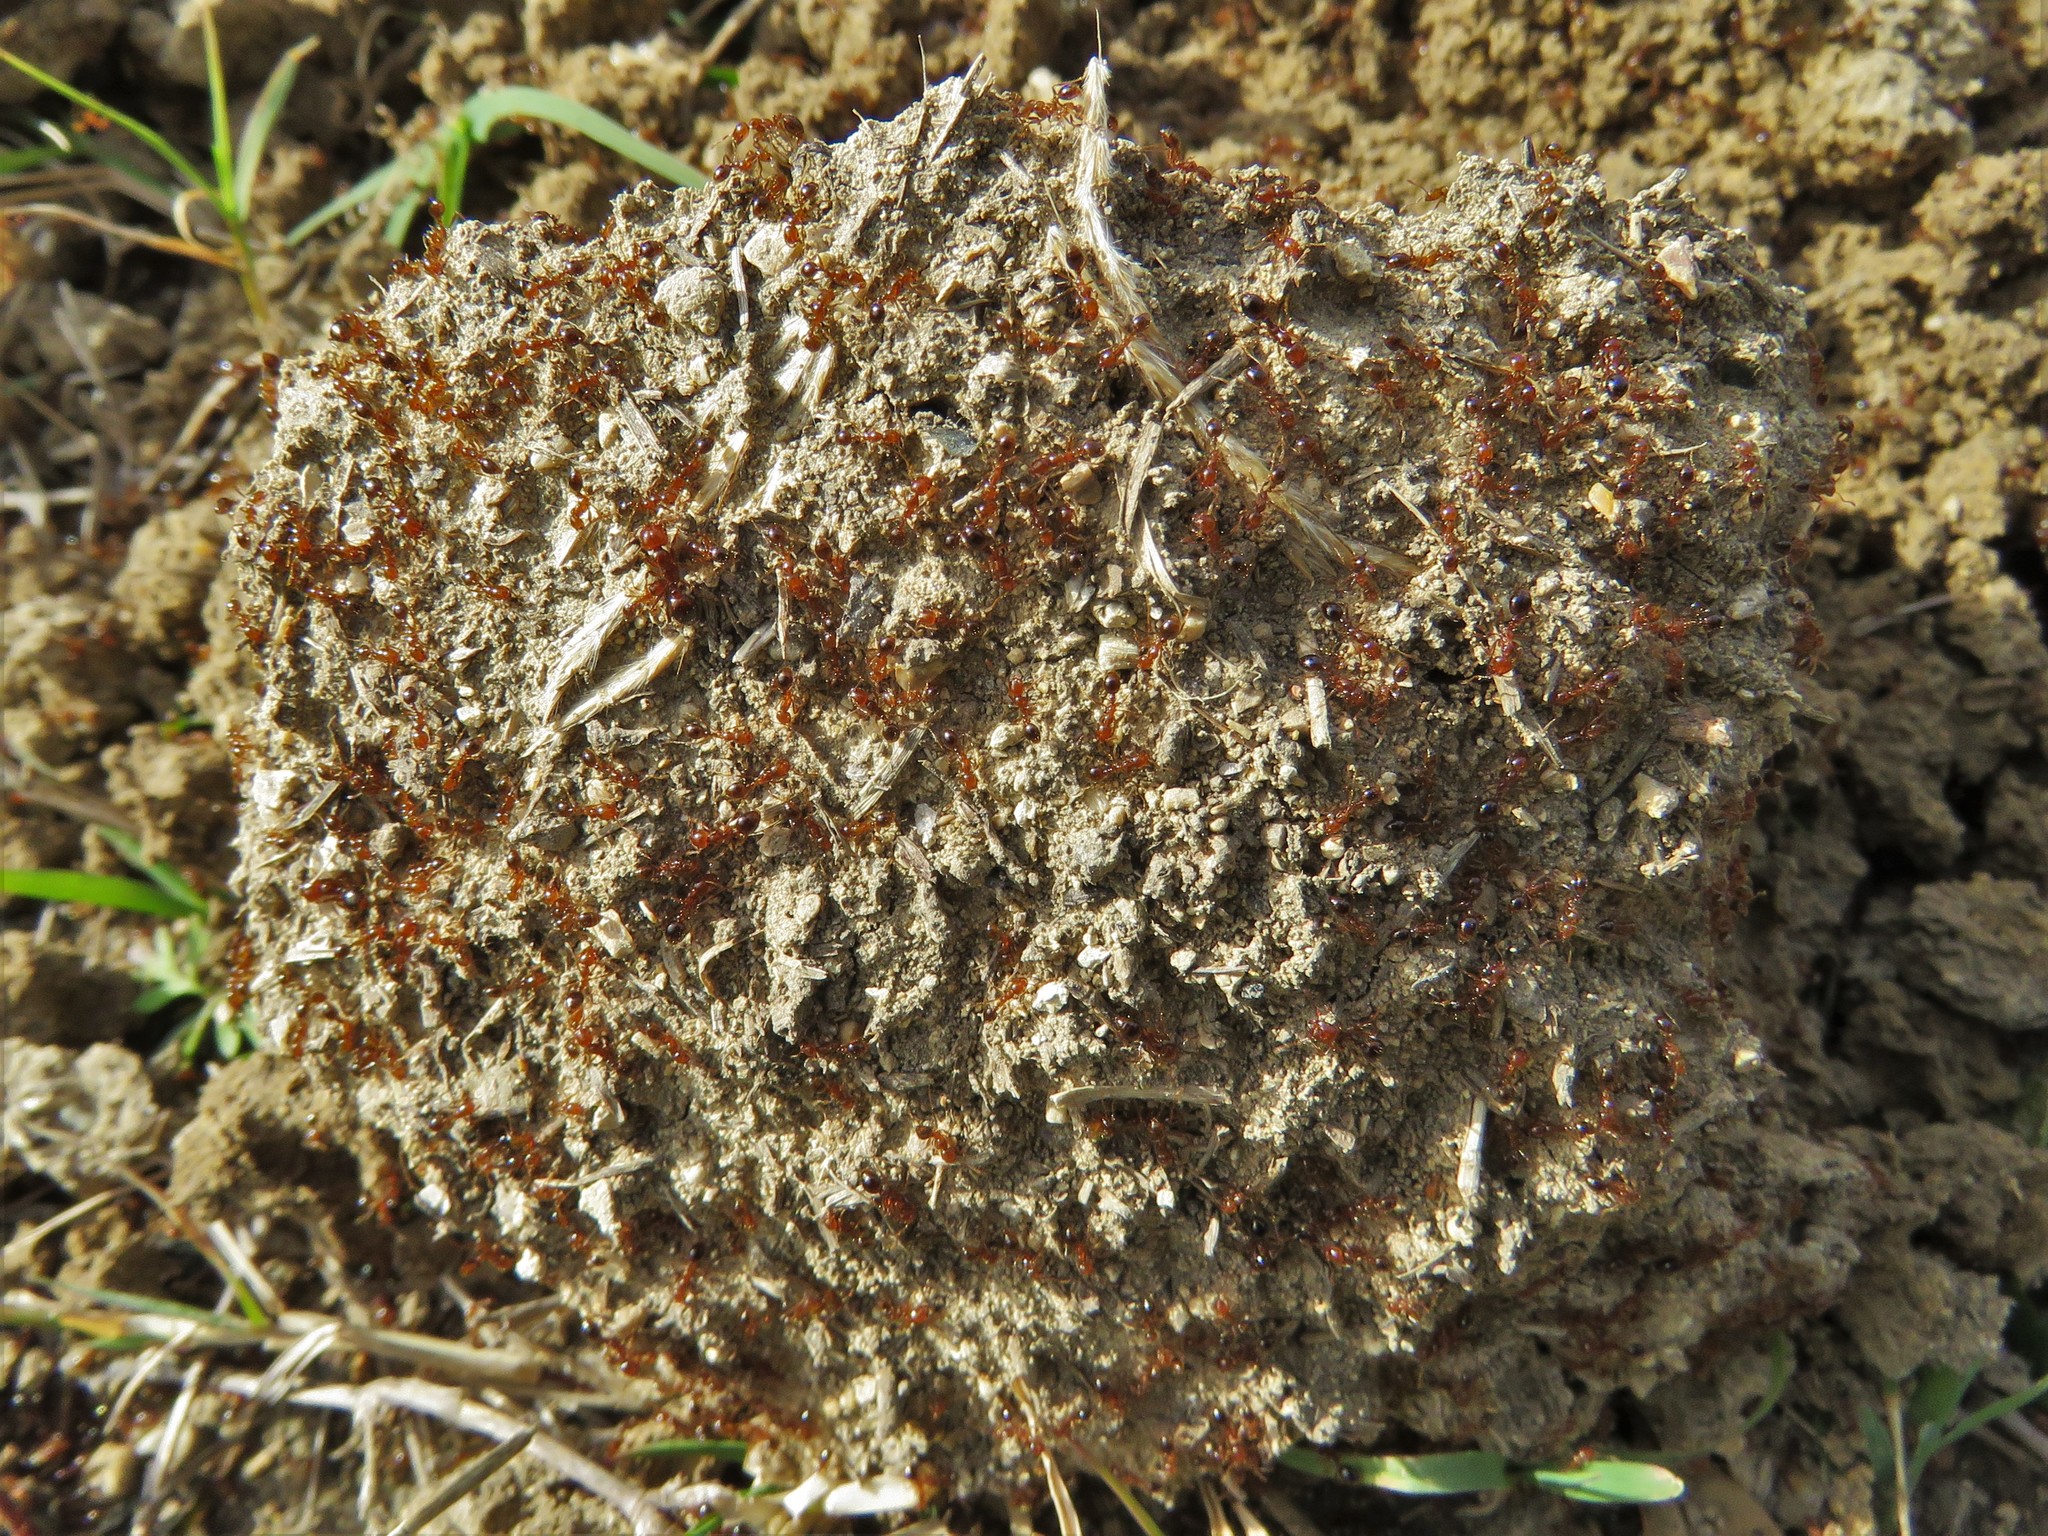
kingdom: Animalia
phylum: Arthropoda
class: Insecta
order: Hymenoptera
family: Formicidae
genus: Solenopsis
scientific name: Solenopsis invicta
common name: Red imported fire ant
